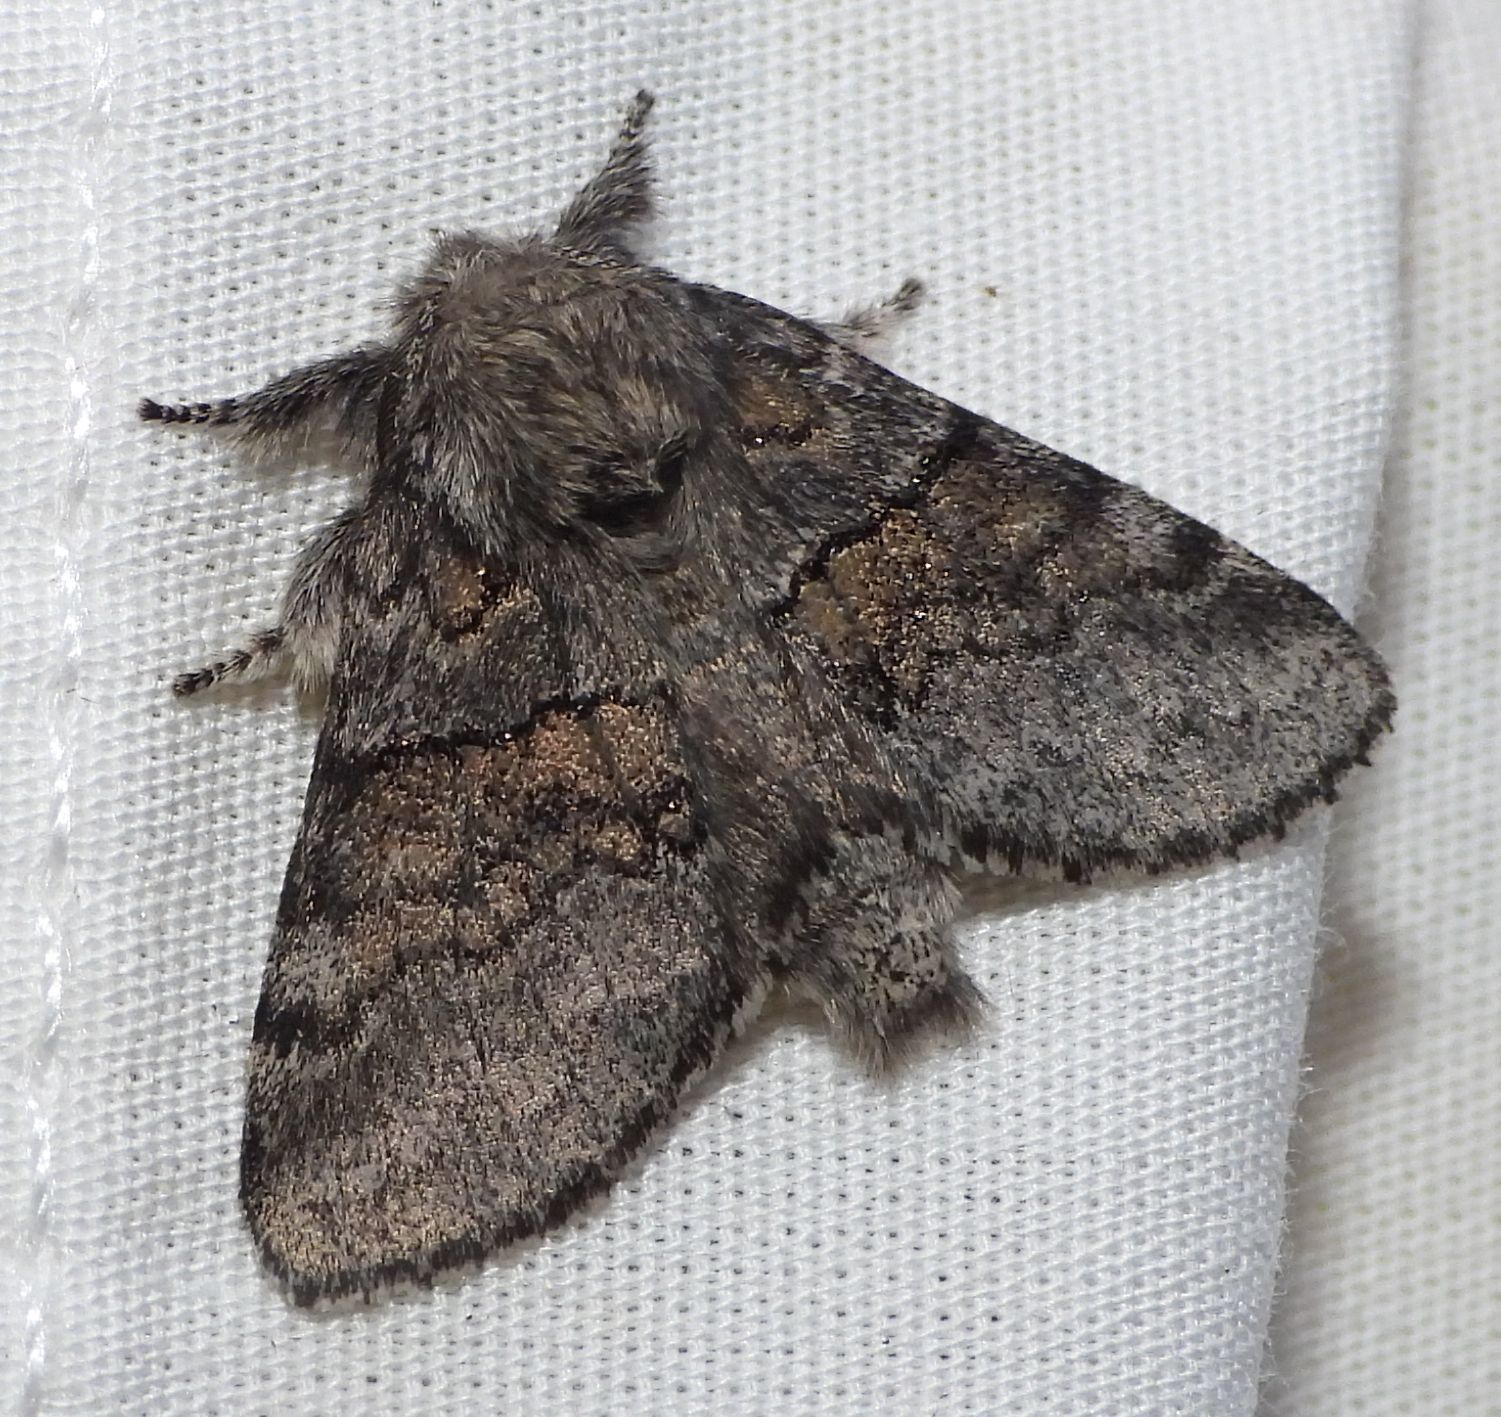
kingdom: Animalia
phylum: Arthropoda
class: Insecta
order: Lepidoptera
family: Notodontidae
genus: Gluphisia
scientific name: Gluphisia septentrionis
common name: Common gluphisia
